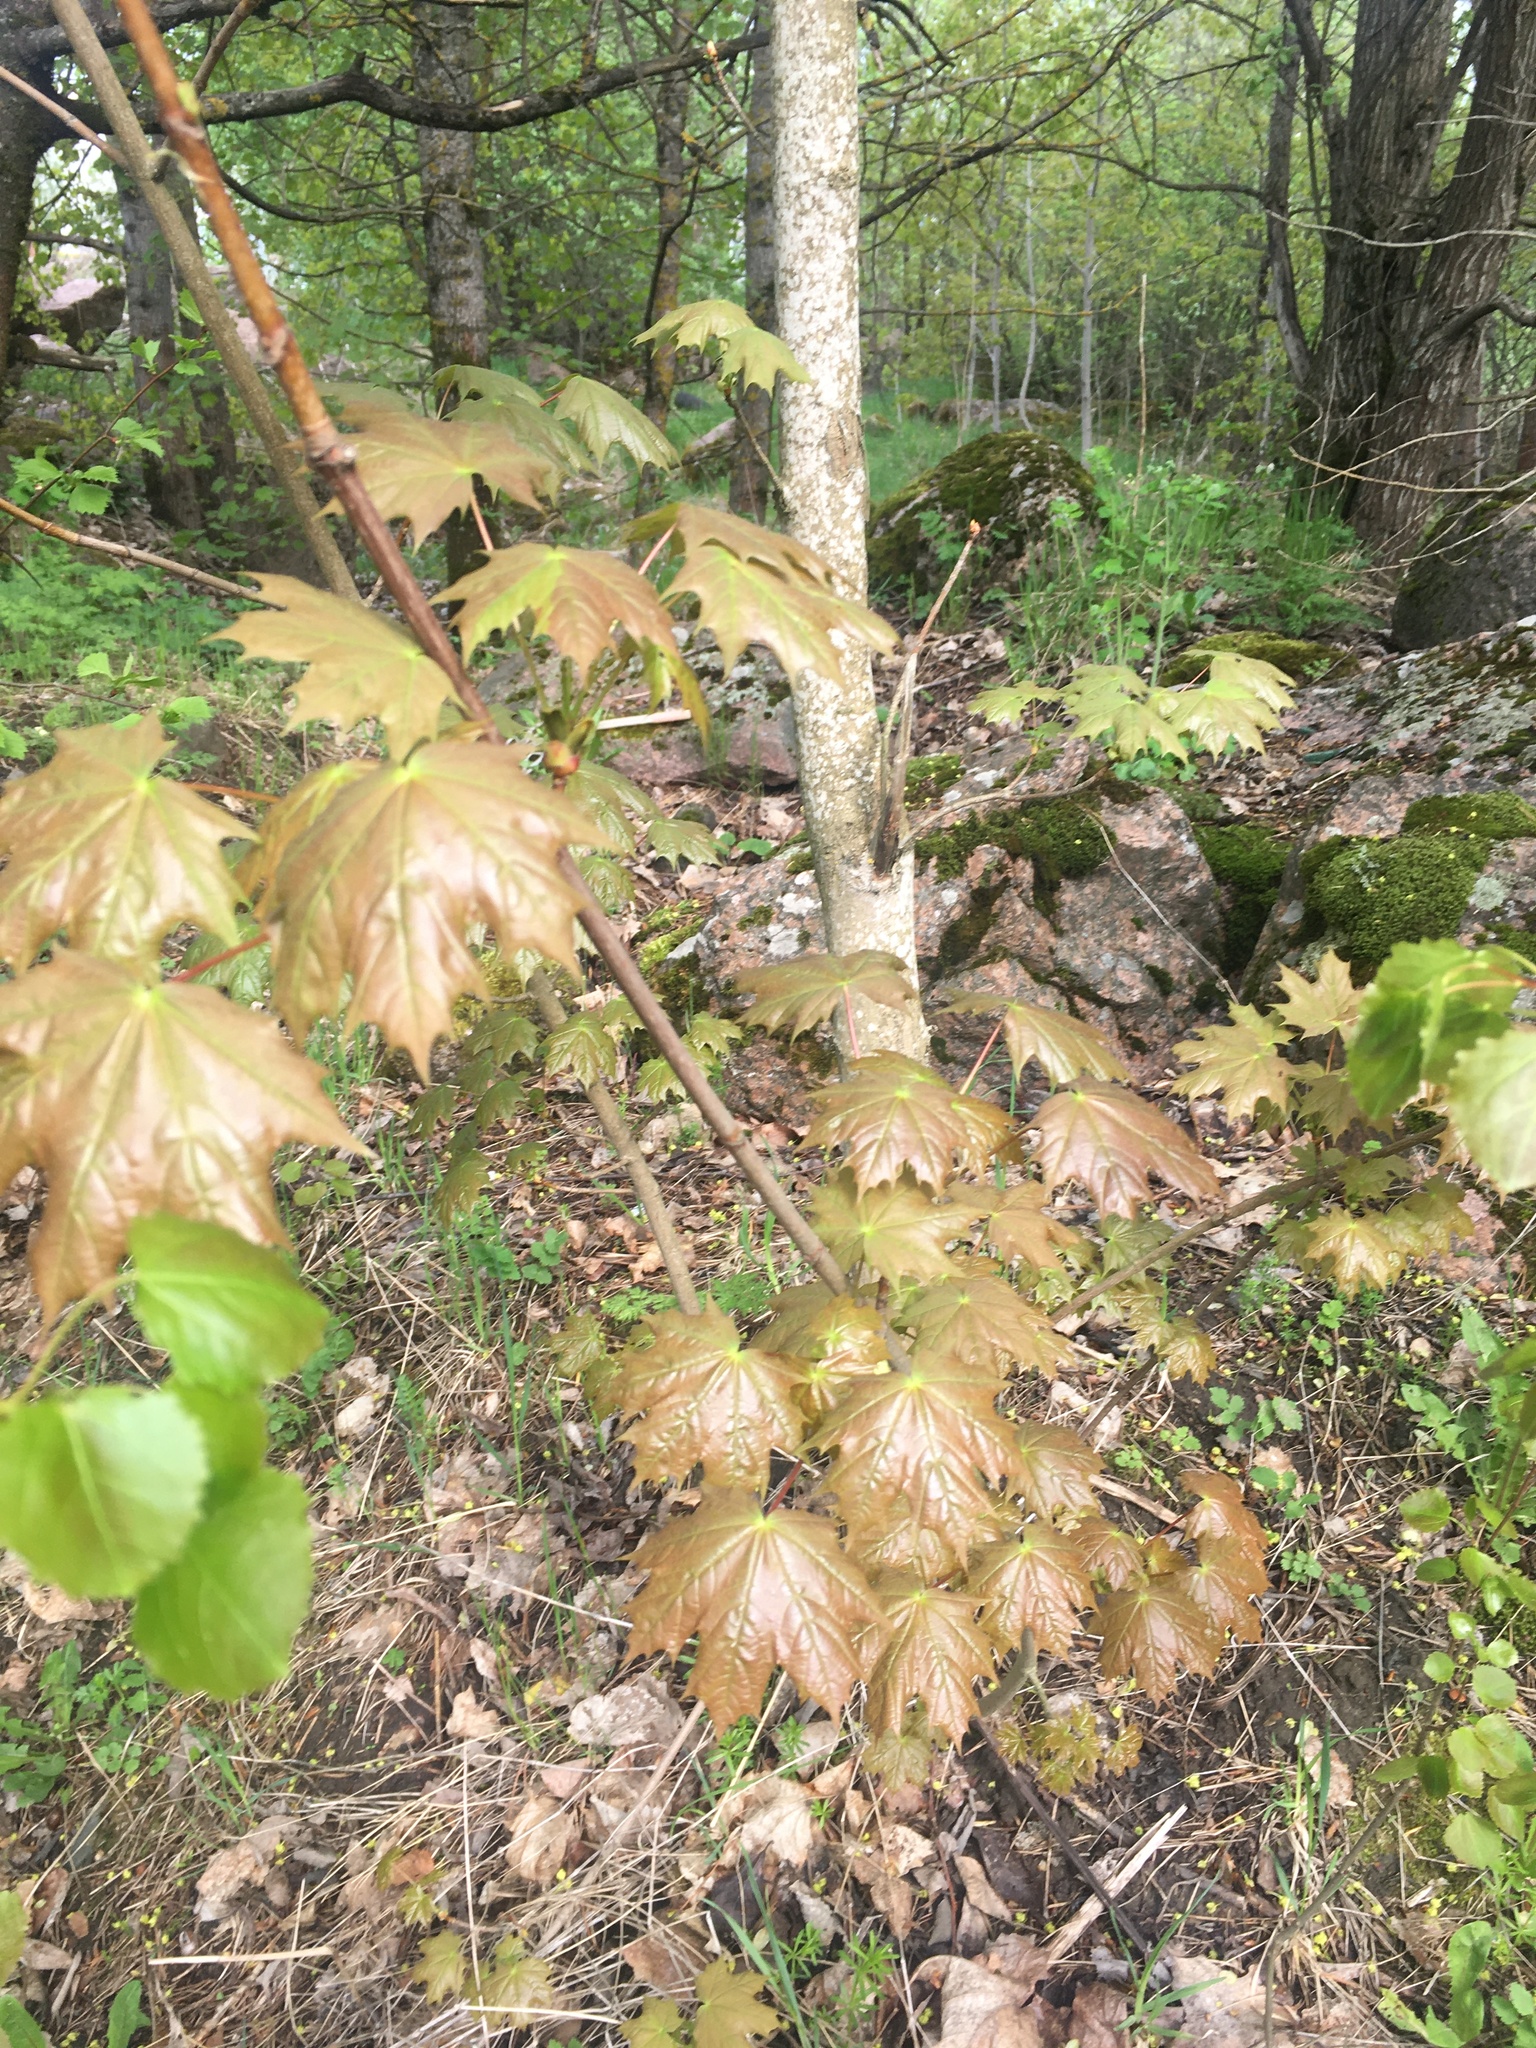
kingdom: Plantae
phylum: Tracheophyta
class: Magnoliopsida
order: Sapindales
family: Sapindaceae
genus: Acer
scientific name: Acer platanoides
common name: Norway maple
